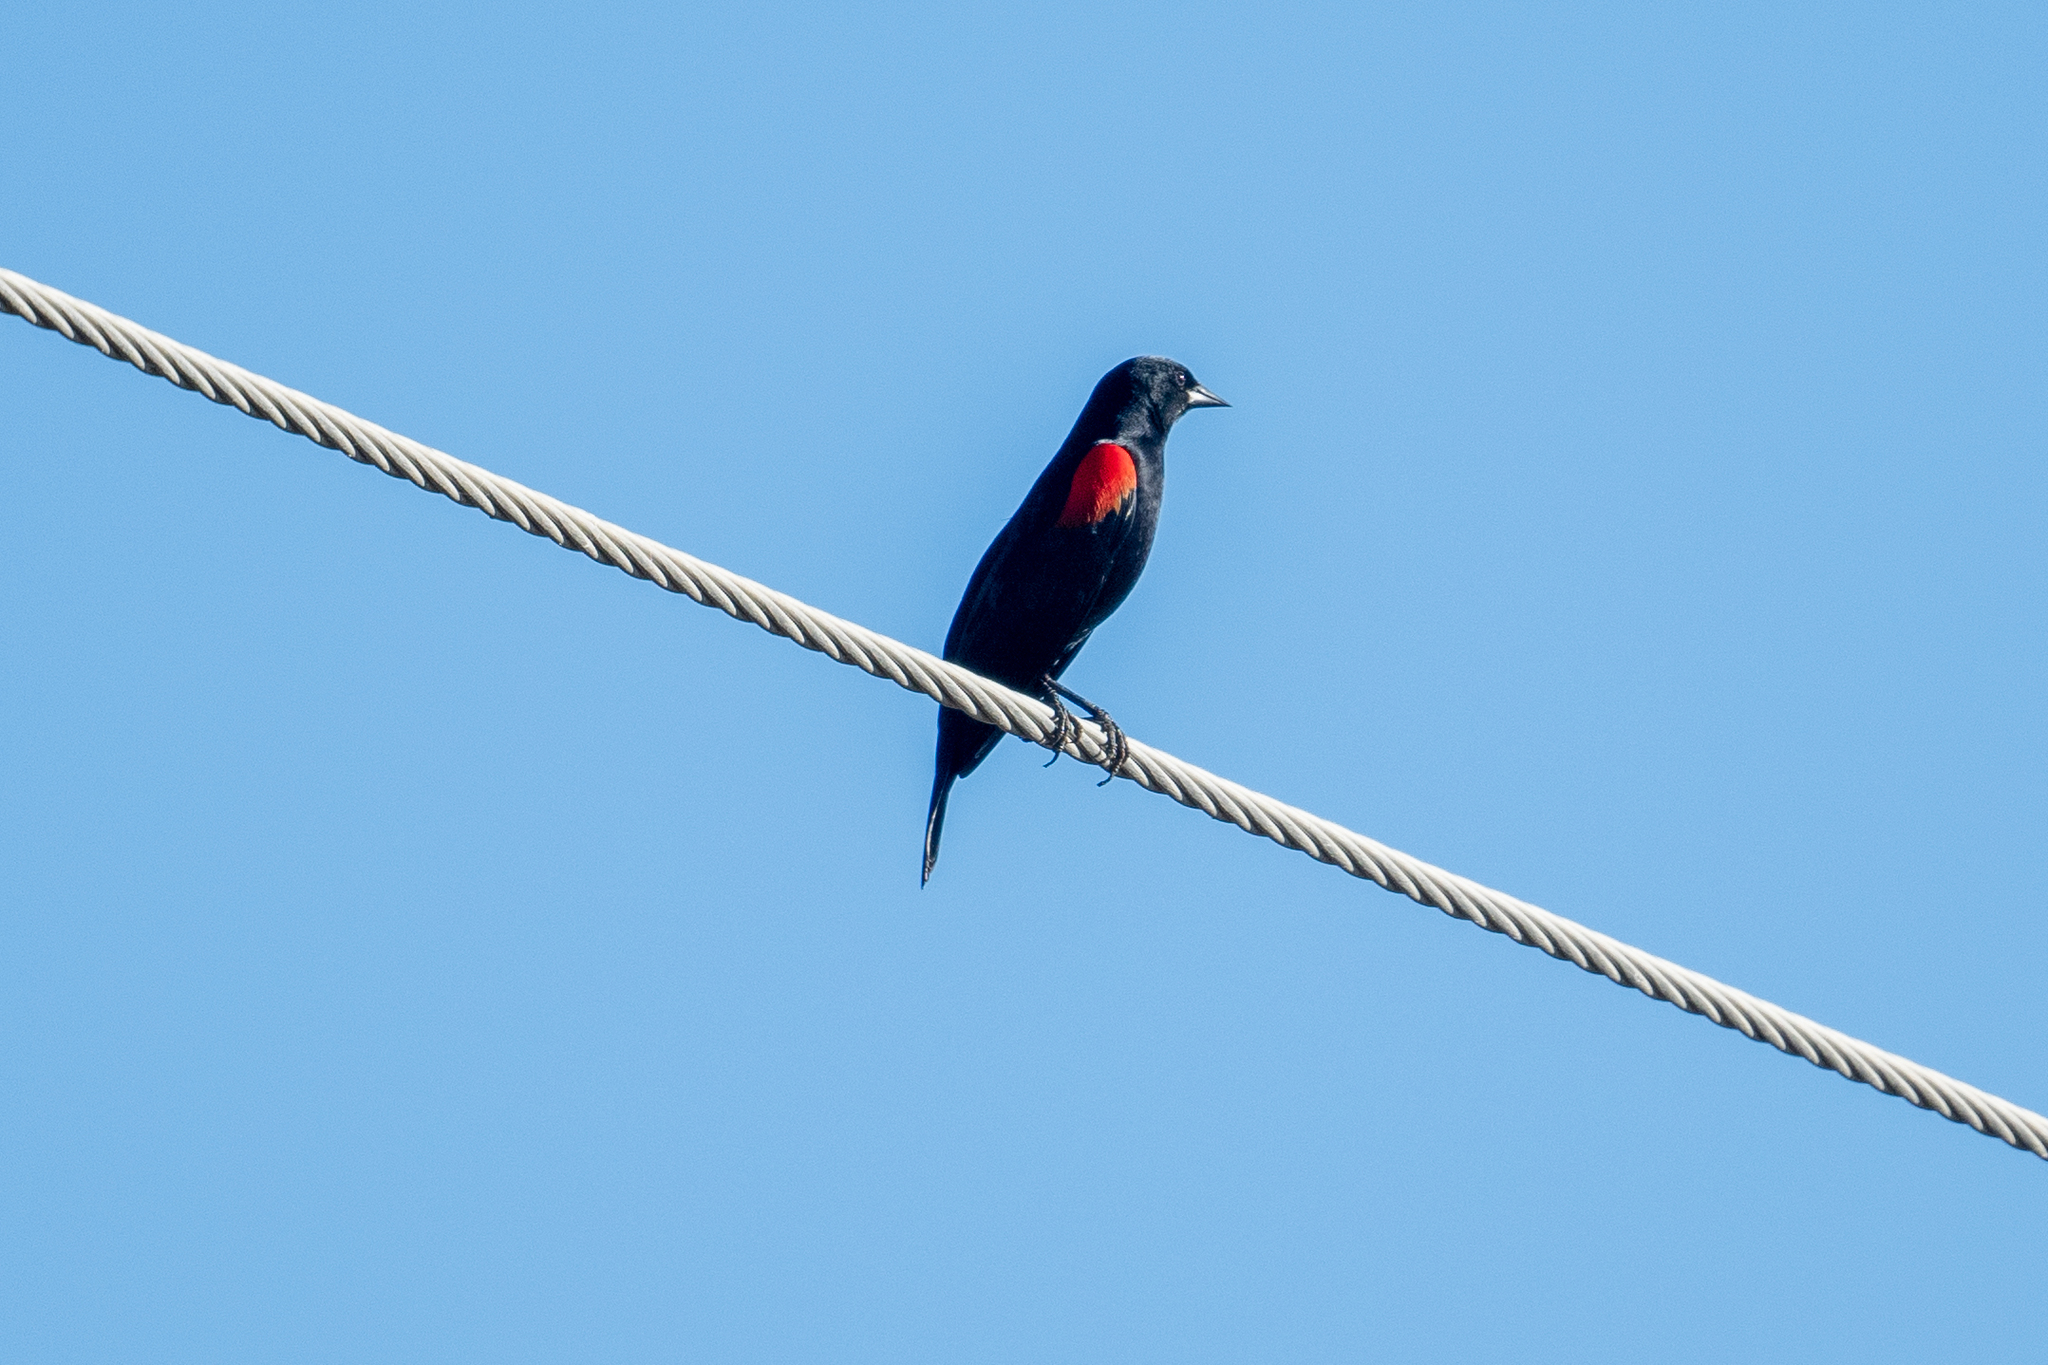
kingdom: Animalia
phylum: Chordata
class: Aves
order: Passeriformes
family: Icteridae
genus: Agelaius
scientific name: Agelaius phoeniceus
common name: Red-winged blackbird
